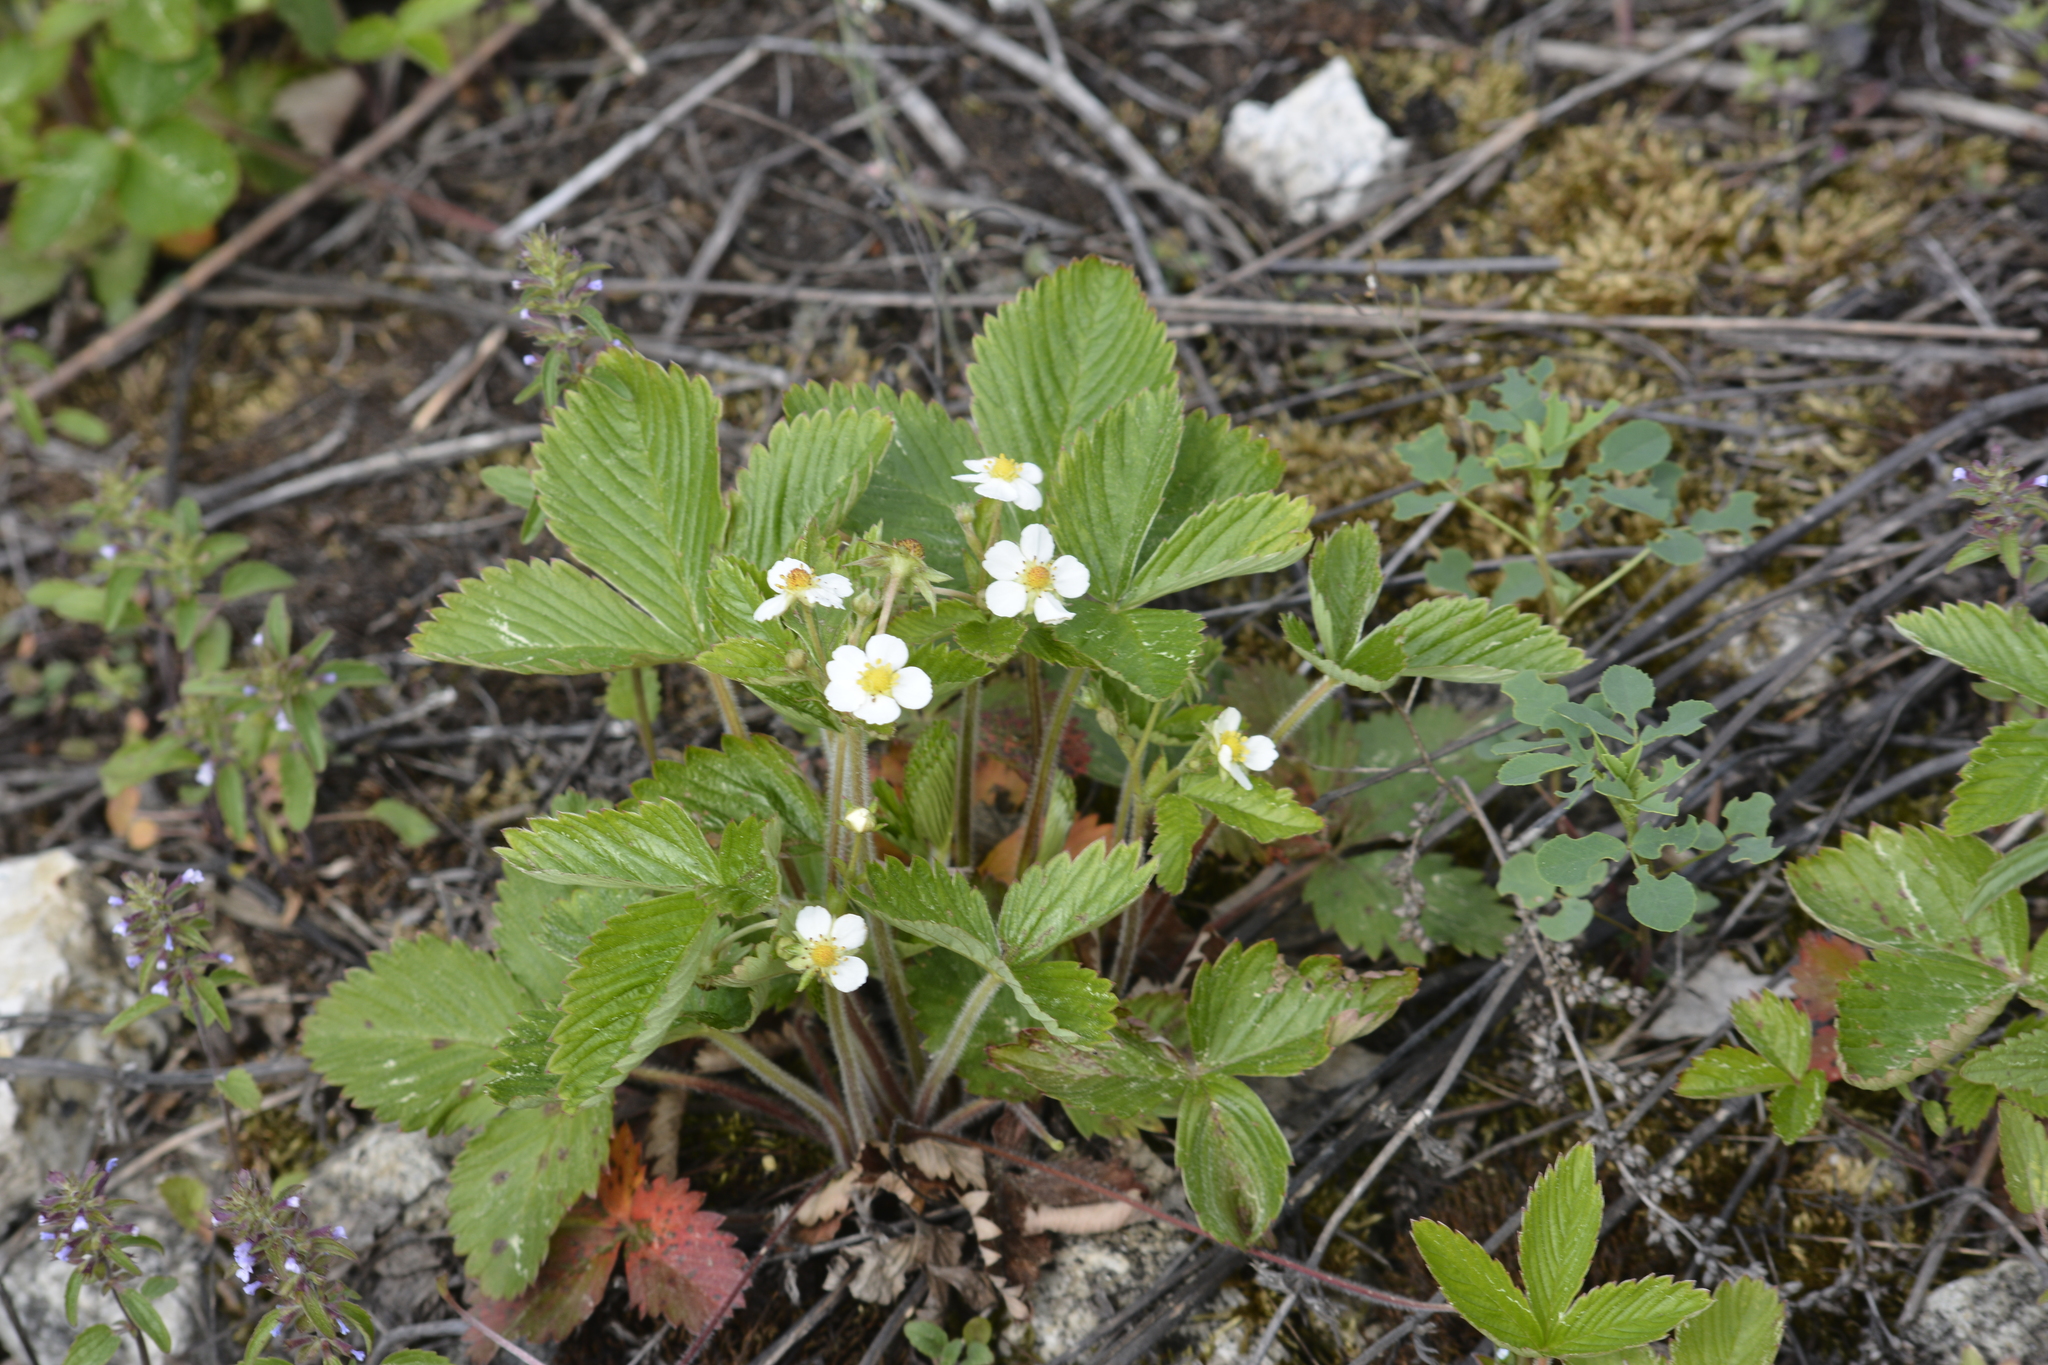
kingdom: Plantae
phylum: Tracheophyta
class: Magnoliopsida
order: Rosales
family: Rosaceae
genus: Fragaria
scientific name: Fragaria vesca
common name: Wild strawberry
